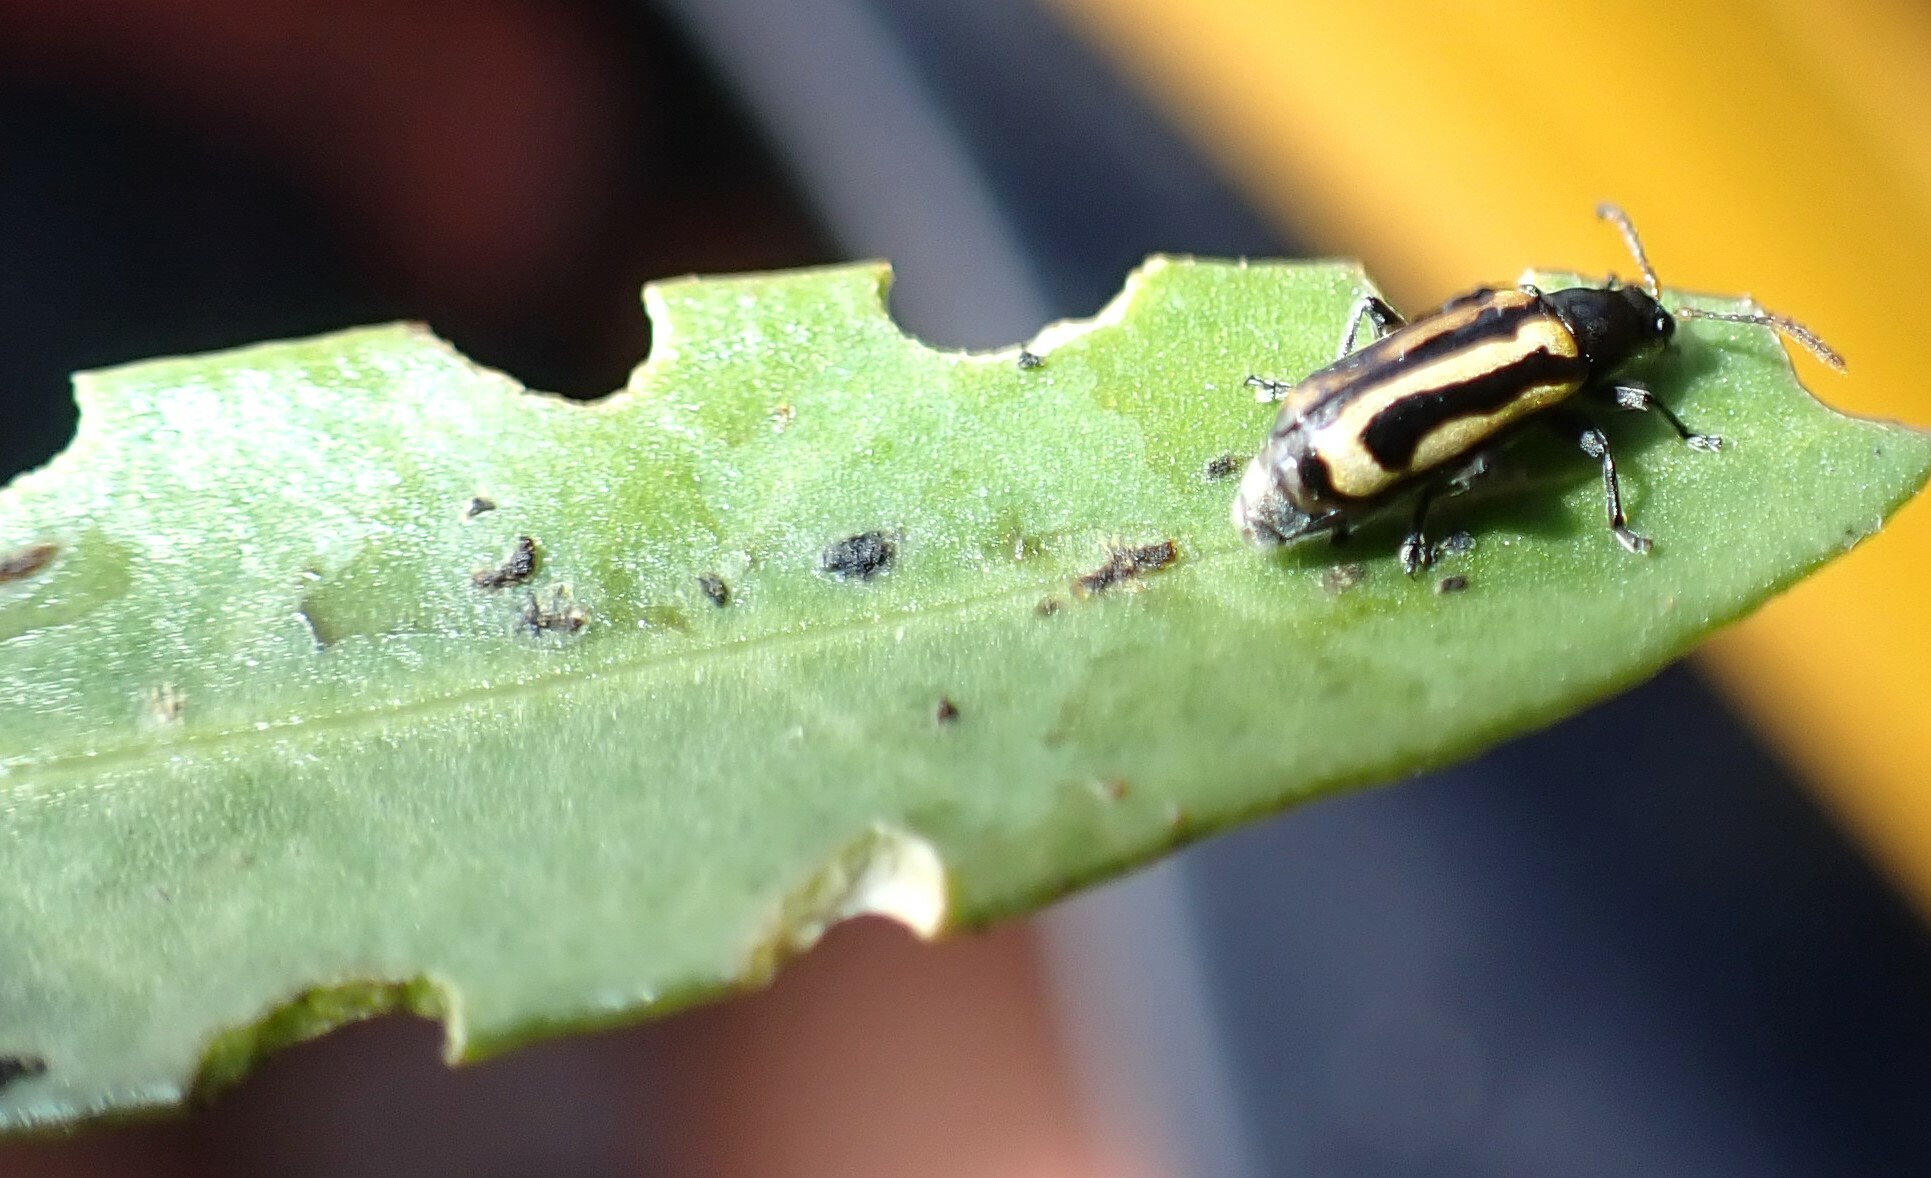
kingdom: Animalia
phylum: Arthropoda
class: Insecta
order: Coleoptera
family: Chrysomelidae
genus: Agasicles
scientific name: Agasicles hygrophila
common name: Alligatorweed flea beetle
